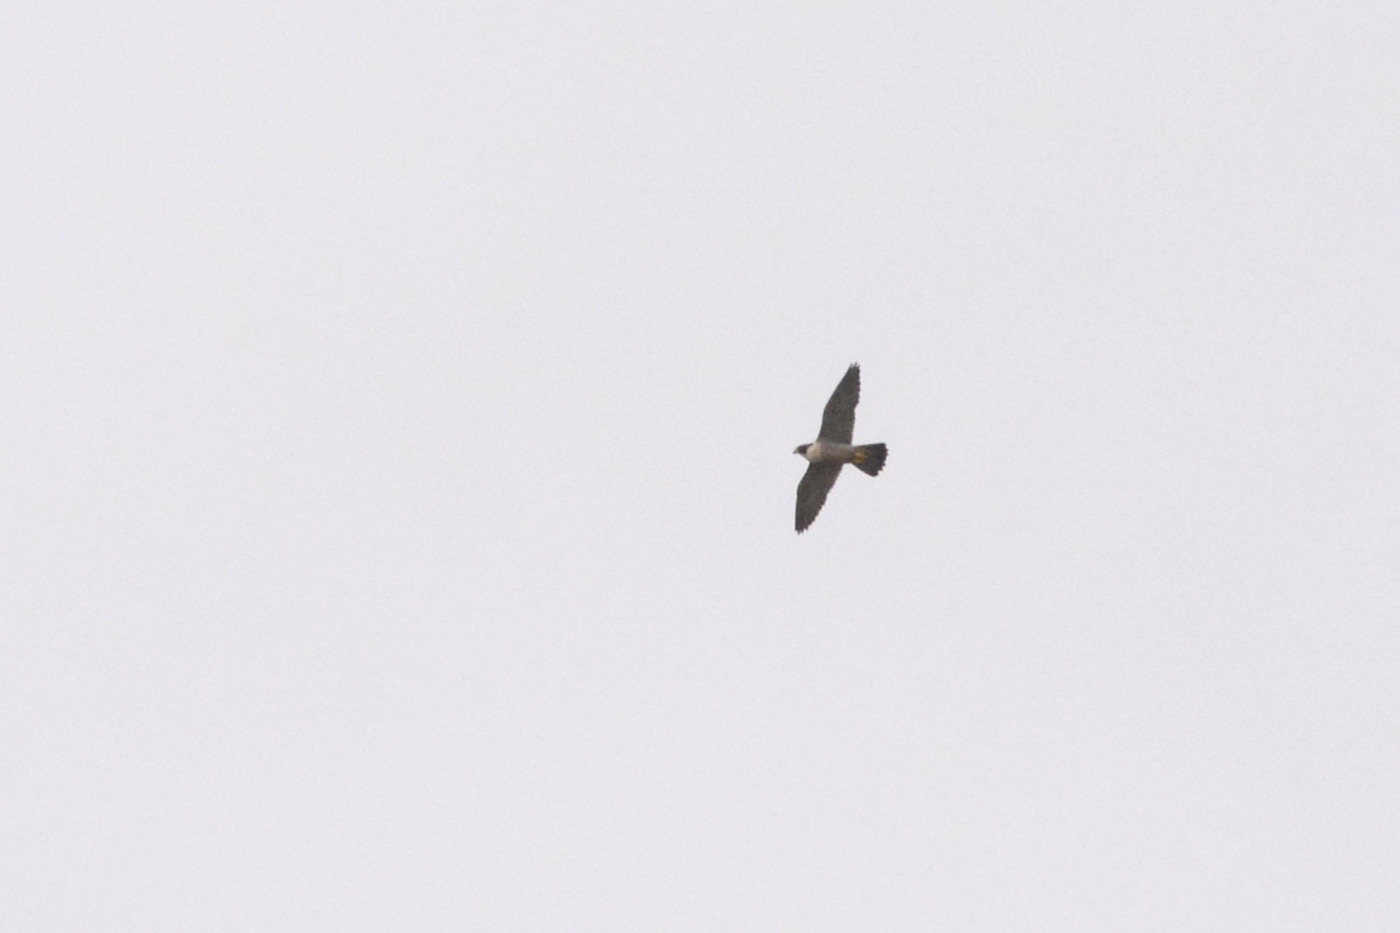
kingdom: Animalia
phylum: Chordata
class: Aves
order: Falconiformes
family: Falconidae
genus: Falco
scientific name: Falco peregrinus
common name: Peregrine falcon
